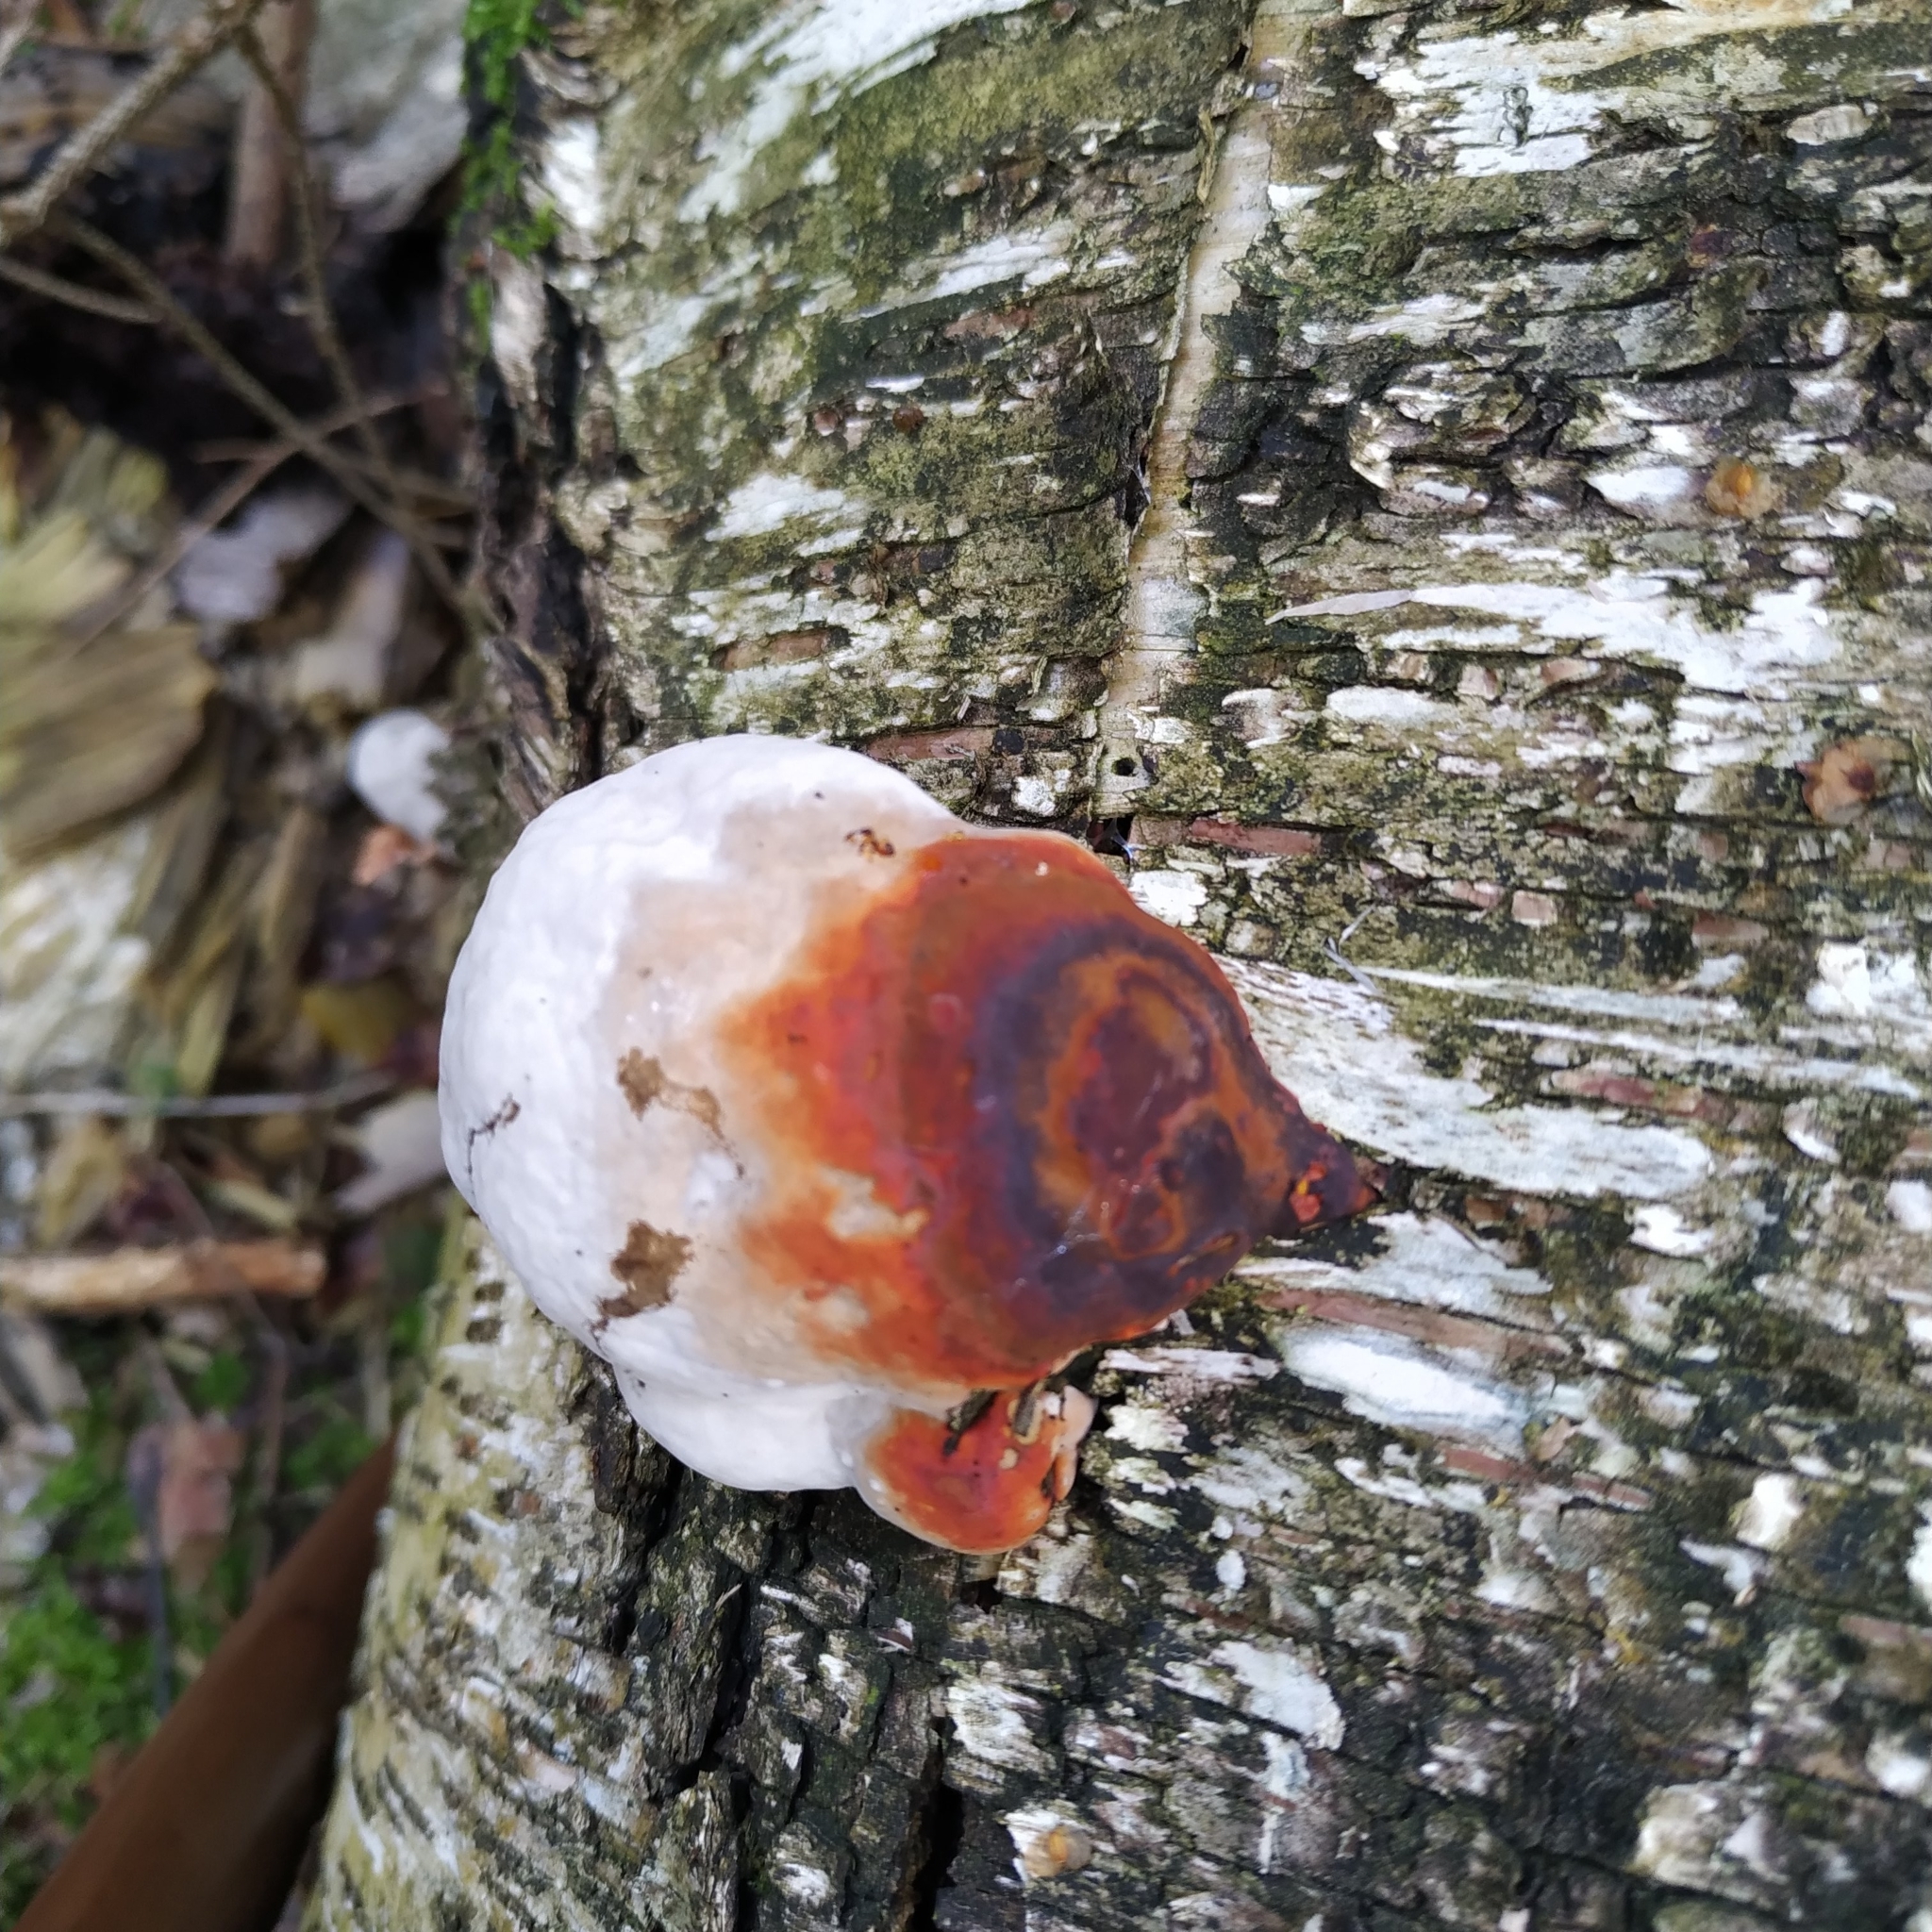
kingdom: Fungi
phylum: Basidiomycota
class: Agaricomycetes
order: Polyporales
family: Fomitopsidaceae
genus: Fomitopsis
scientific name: Fomitopsis pinicola
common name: Red-belted bracket
